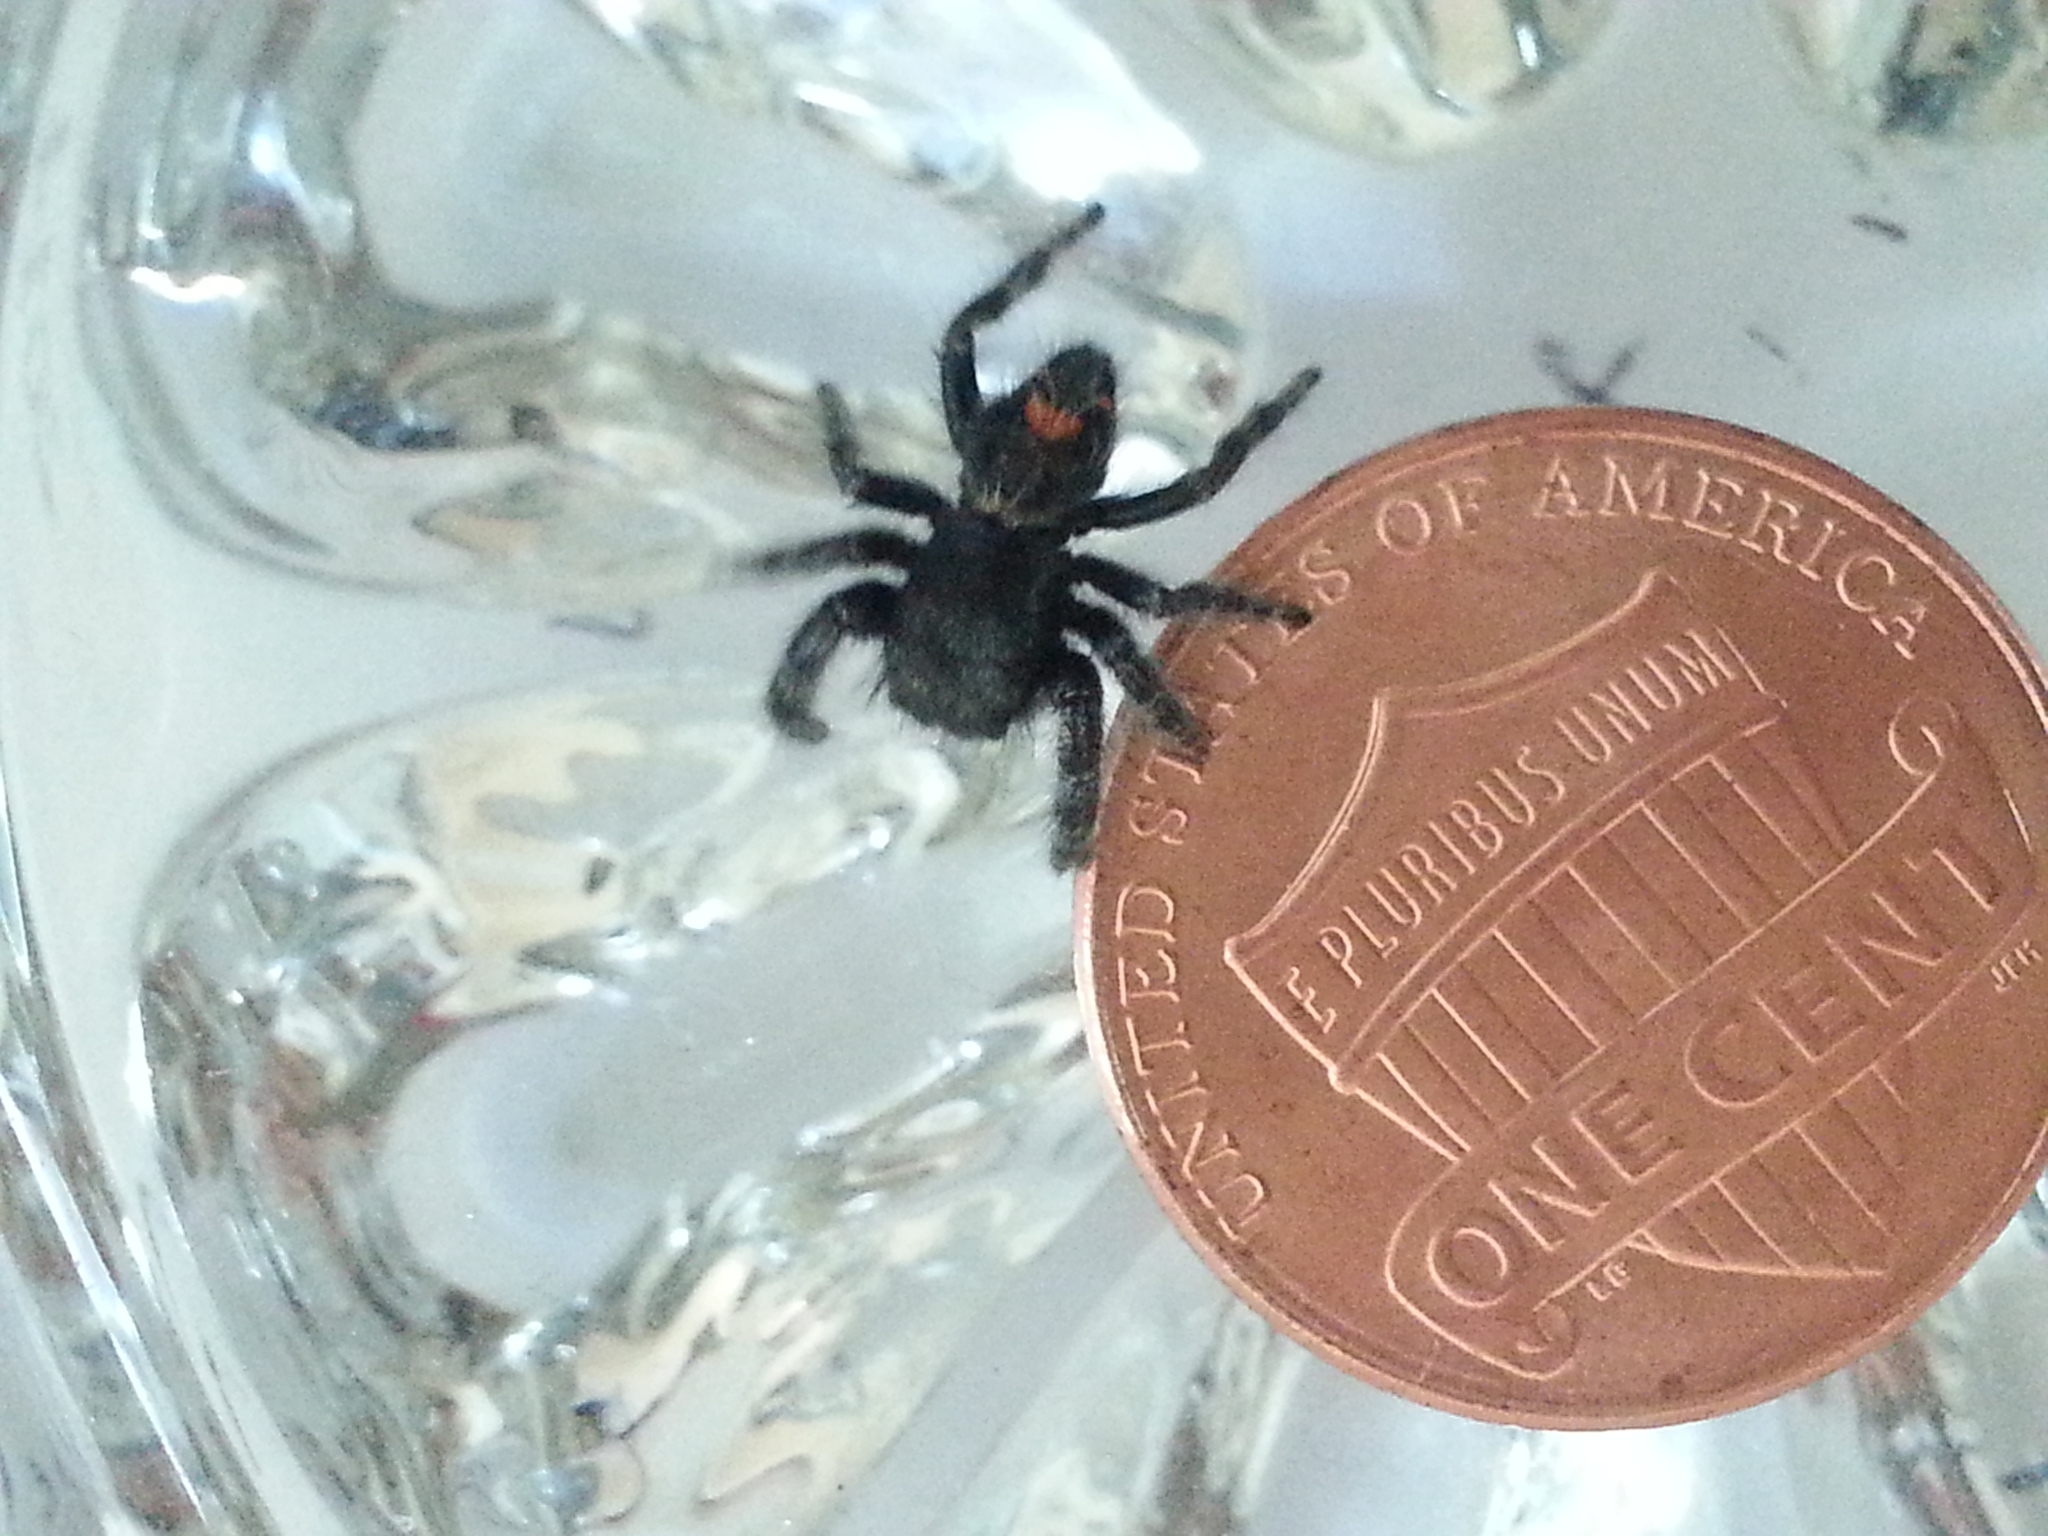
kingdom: Animalia
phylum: Arthropoda
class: Arachnida
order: Araneae
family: Salticidae
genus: Phidippus
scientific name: Phidippus audax
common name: Bold jumper
